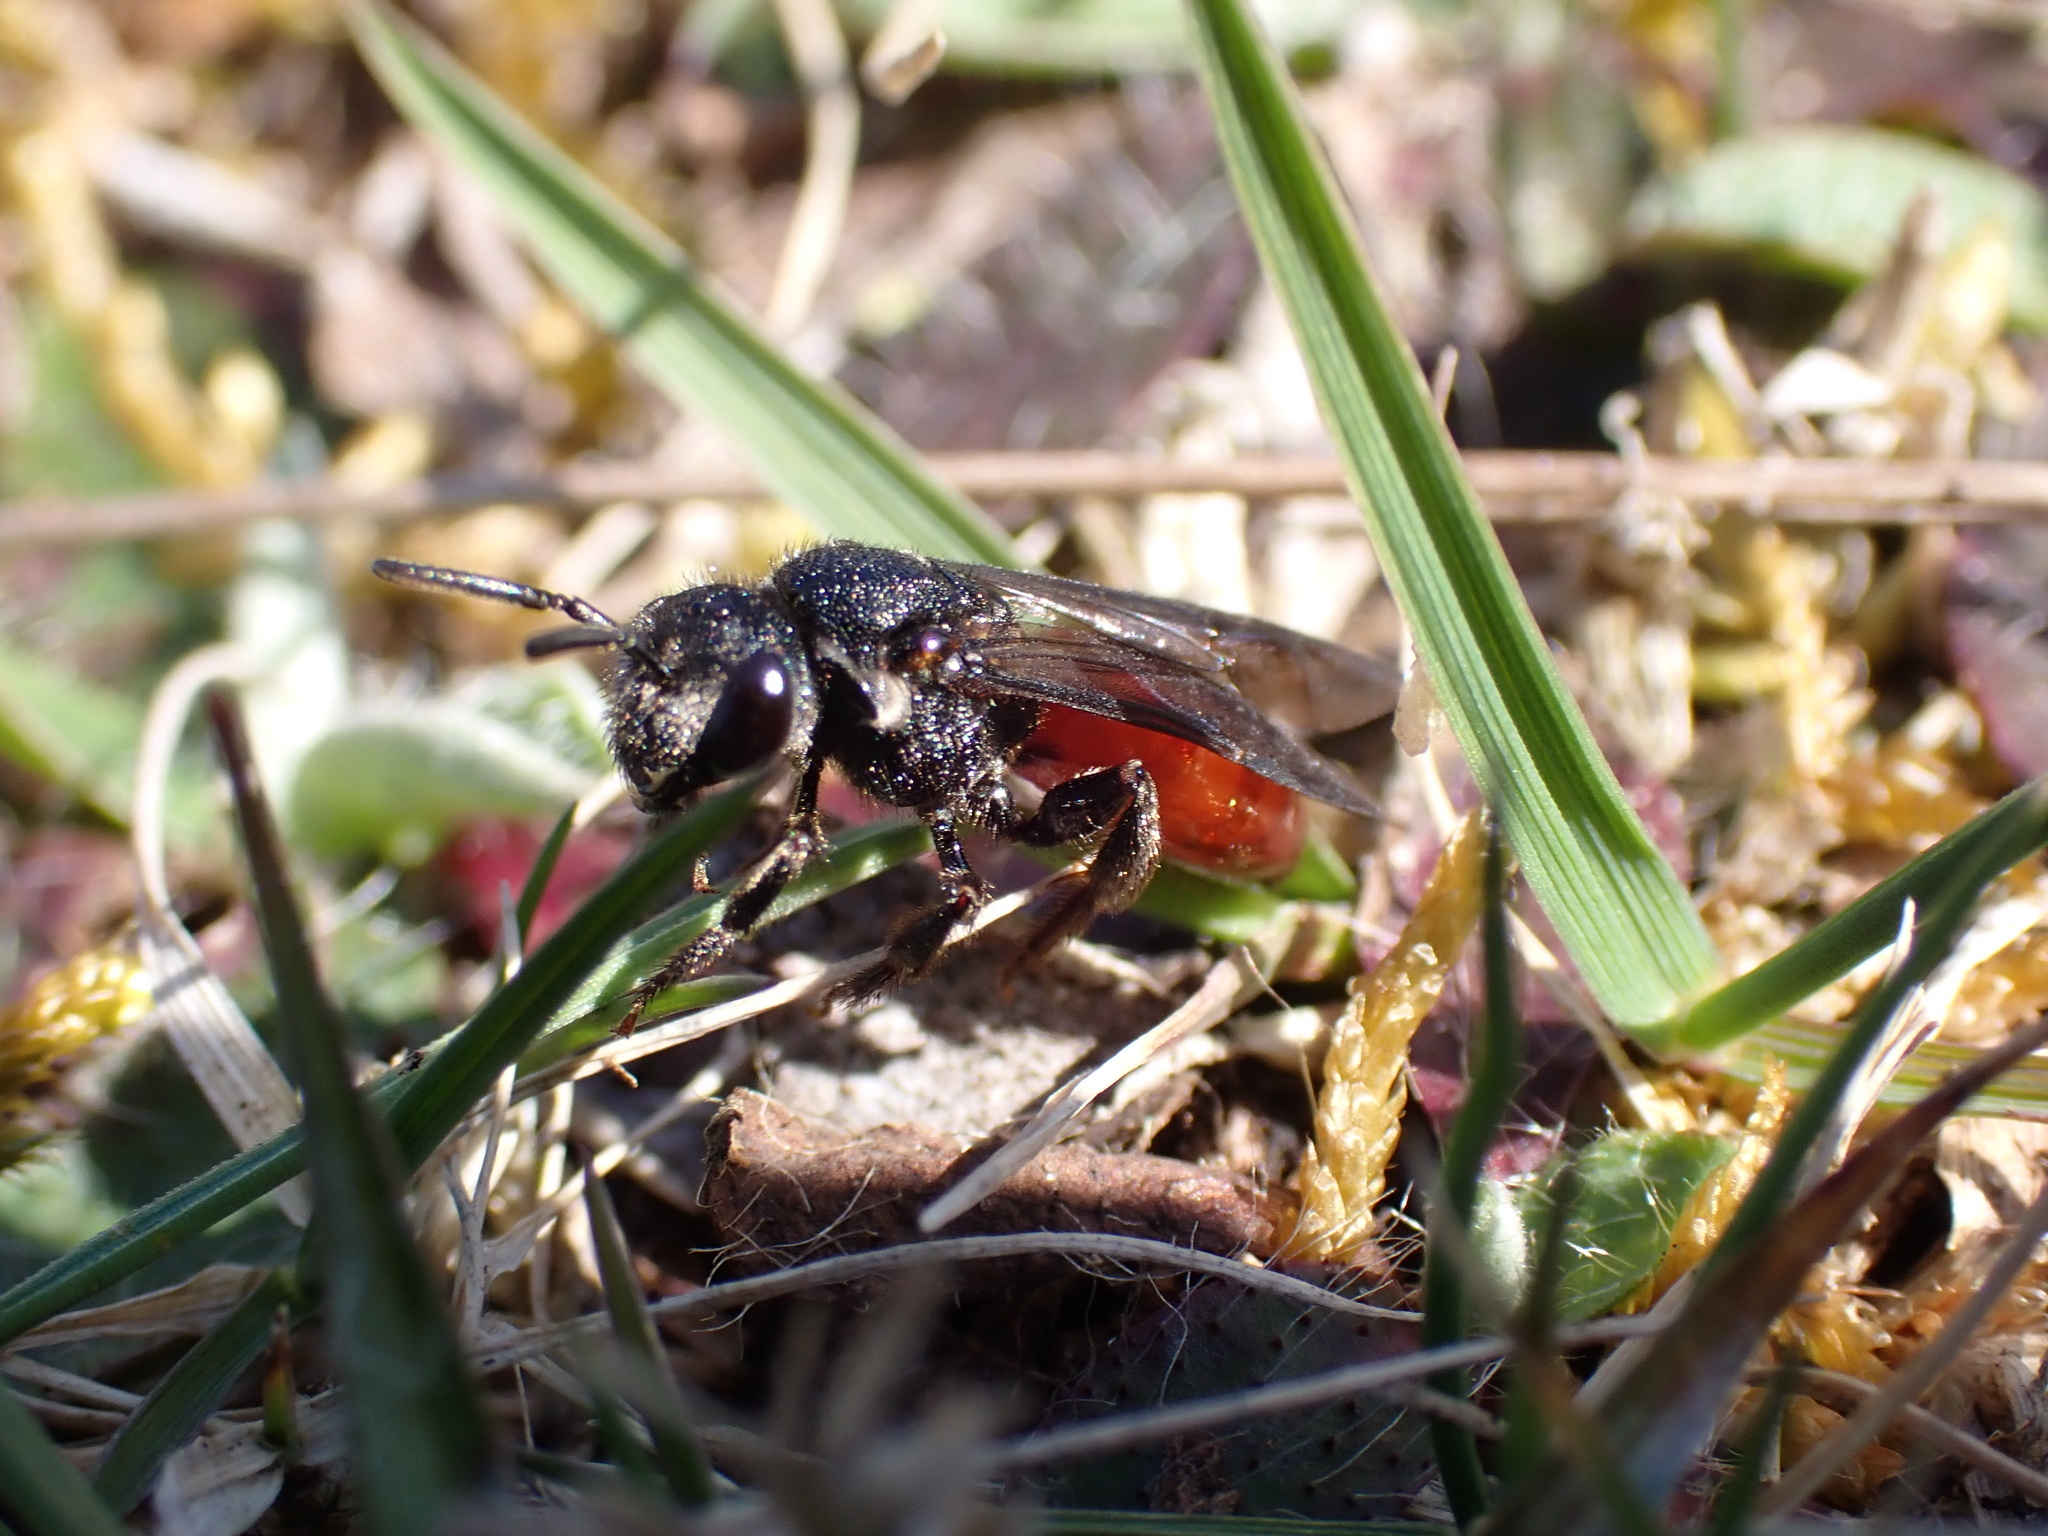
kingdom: Animalia
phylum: Arthropoda
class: Insecta
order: Hymenoptera
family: Halictidae
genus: Sphecodes
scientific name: Sphecodes albilabris
